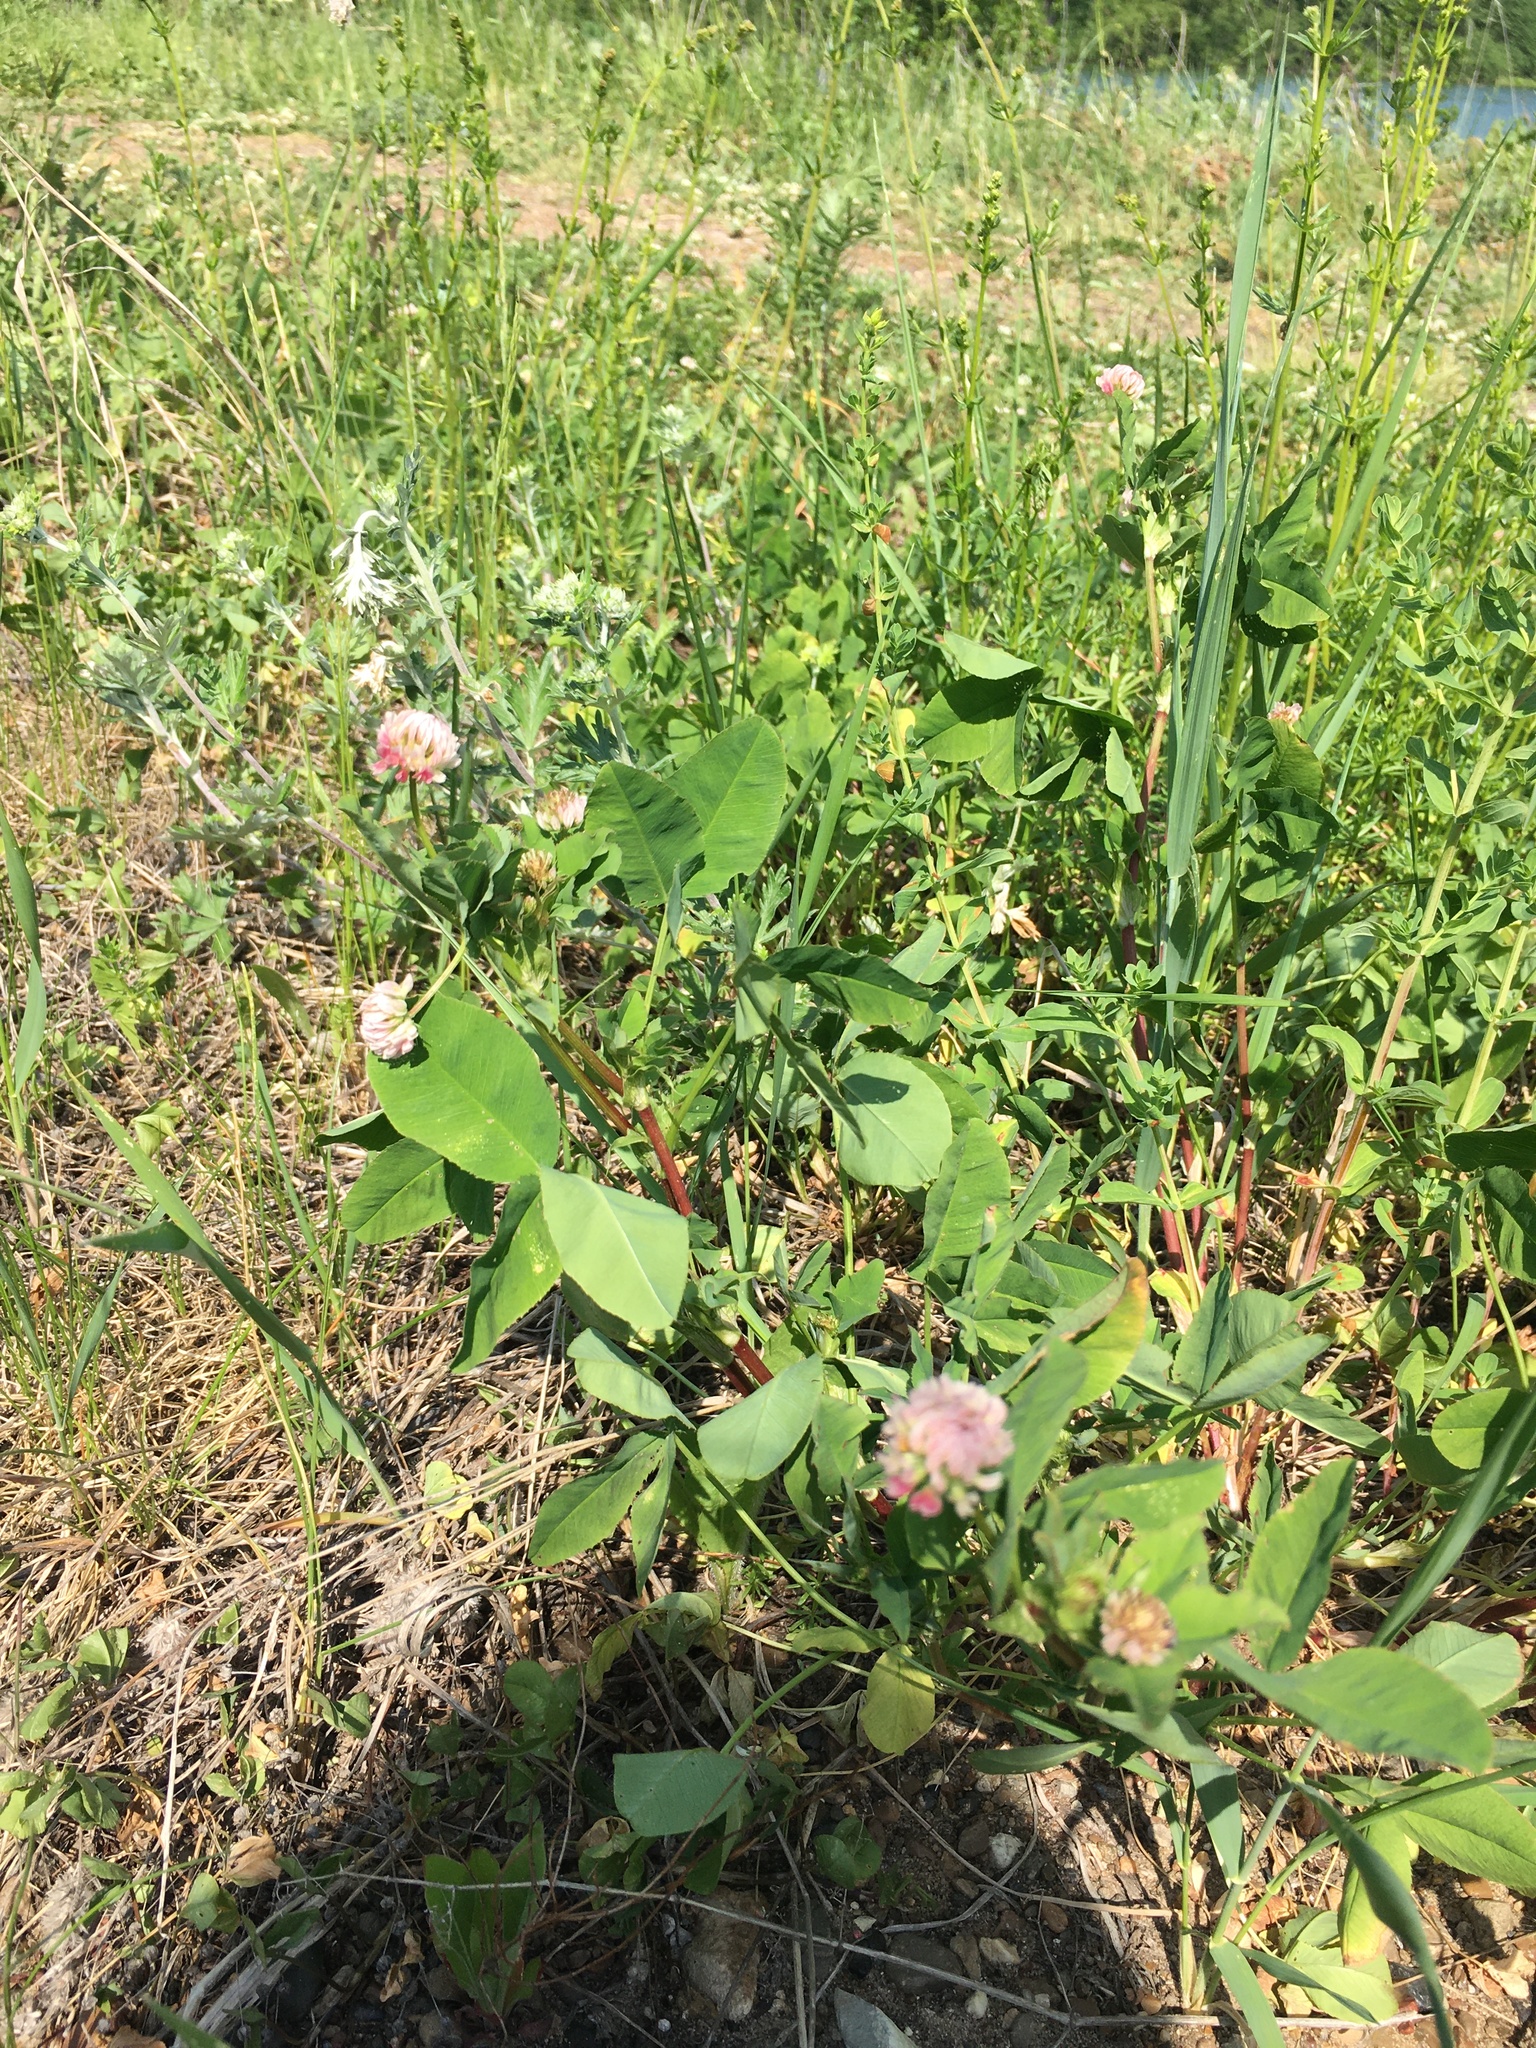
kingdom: Plantae
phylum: Tracheophyta
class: Magnoliopsida
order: Fabales
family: Fabaceae
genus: Trifolium
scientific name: Trifolium hybridum
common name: Alsike clover
